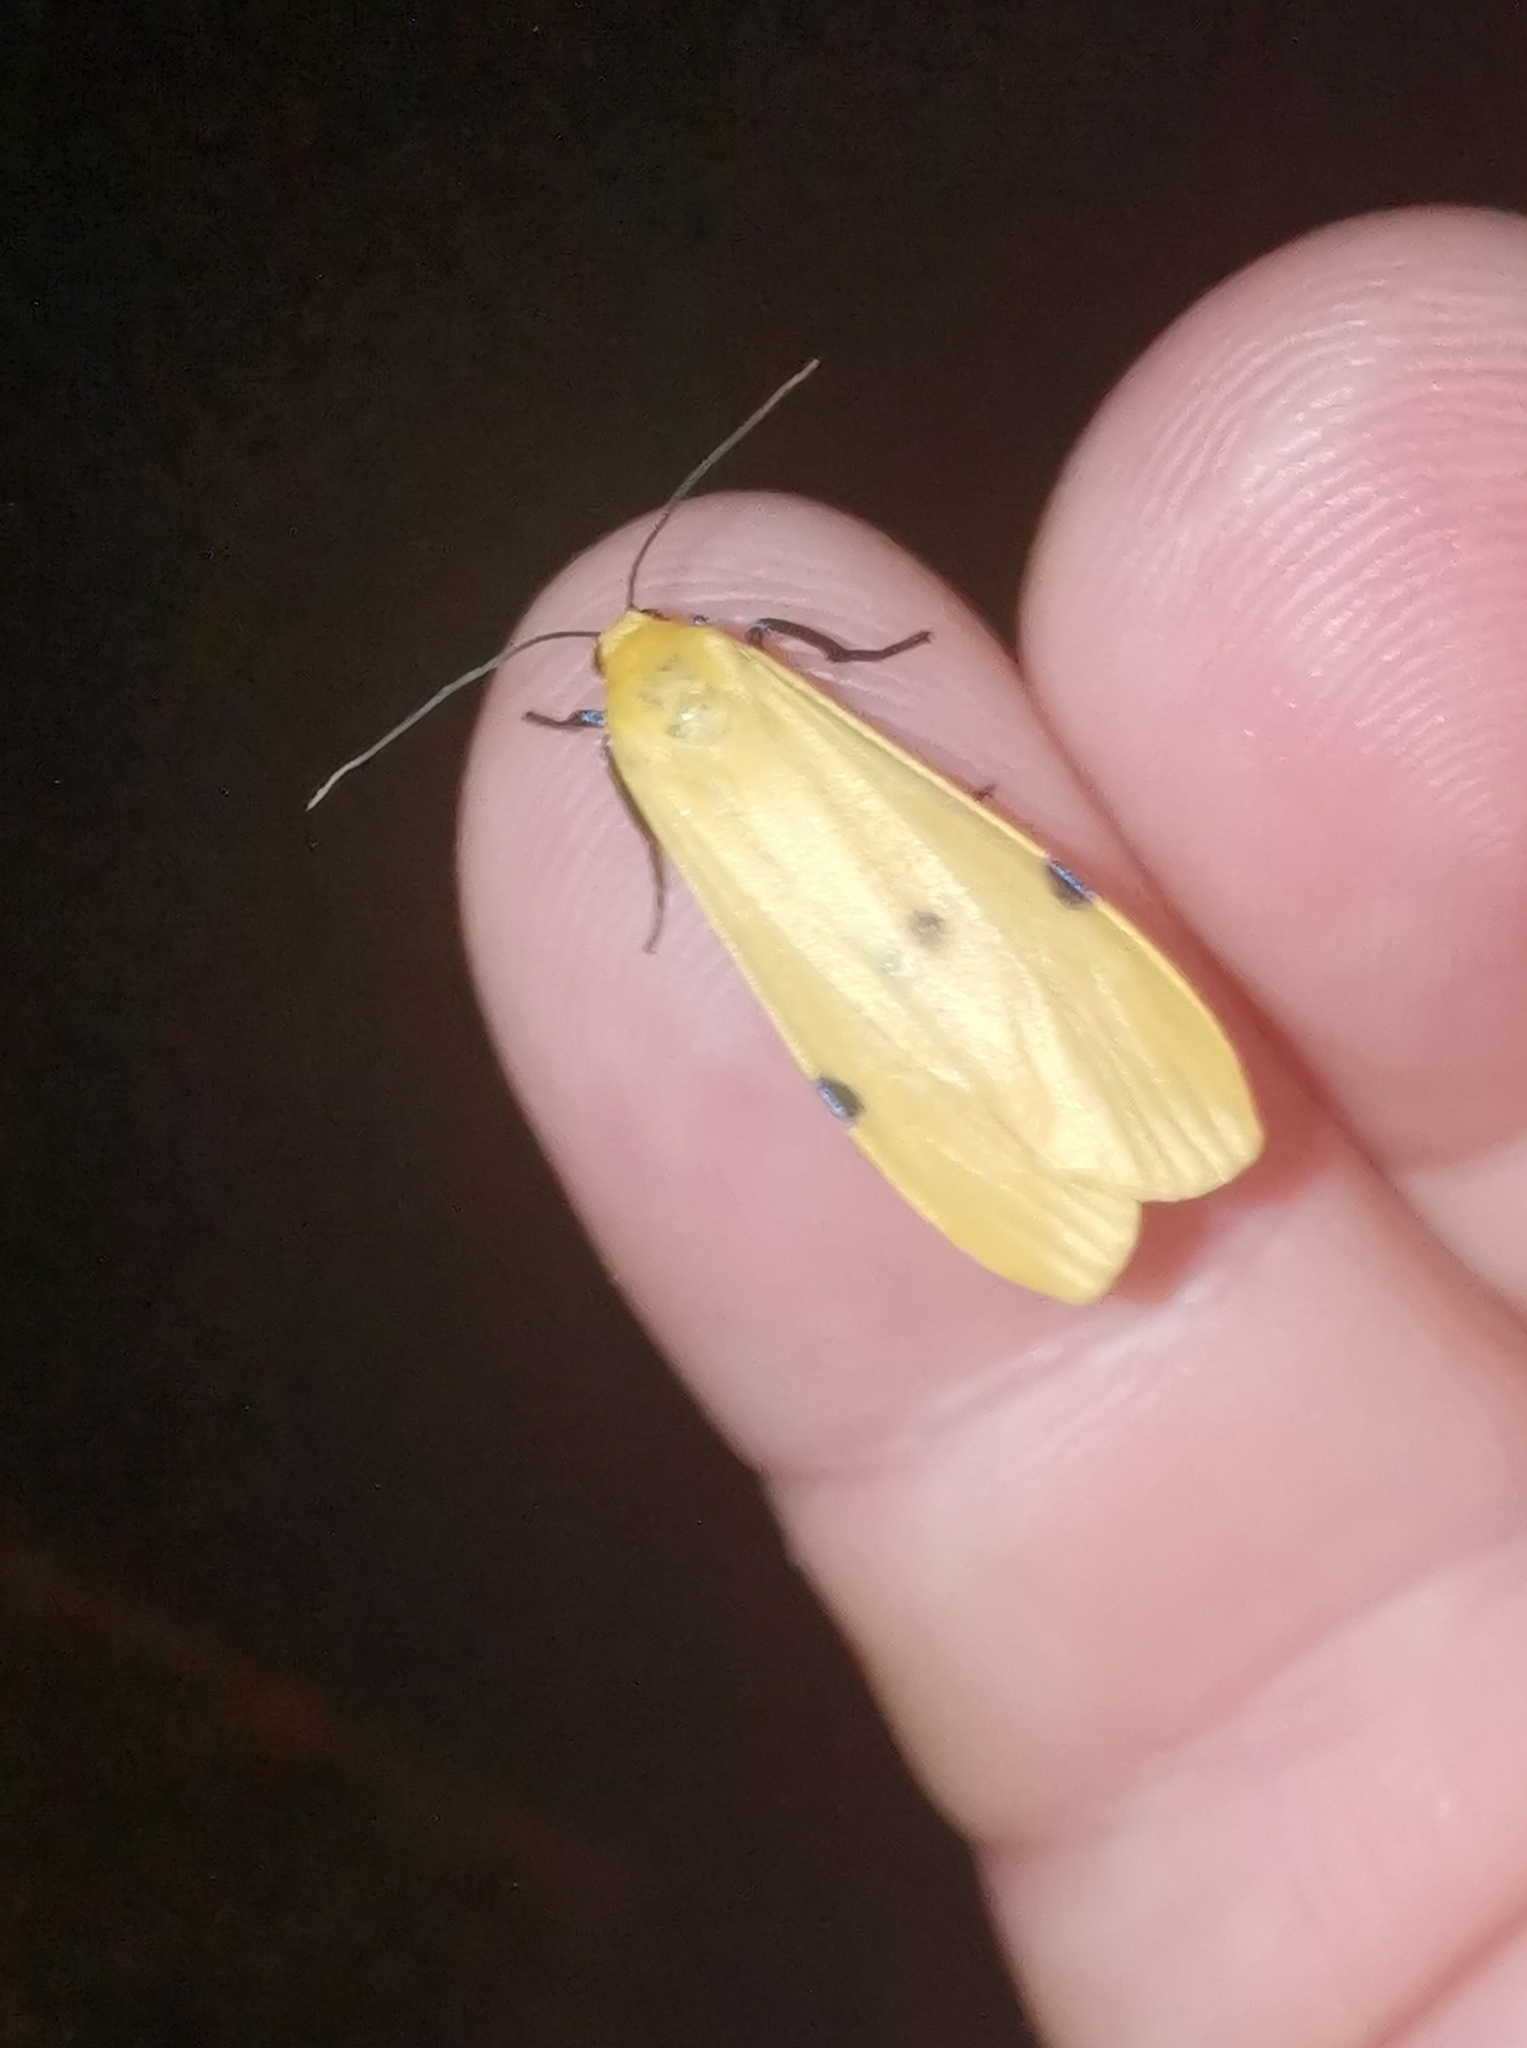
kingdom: Animalia
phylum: Arthropoda
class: Insecta
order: Lepidoptera
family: Erebidae
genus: Lithosia
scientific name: Lithosia quadra
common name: Four-spotted footman
